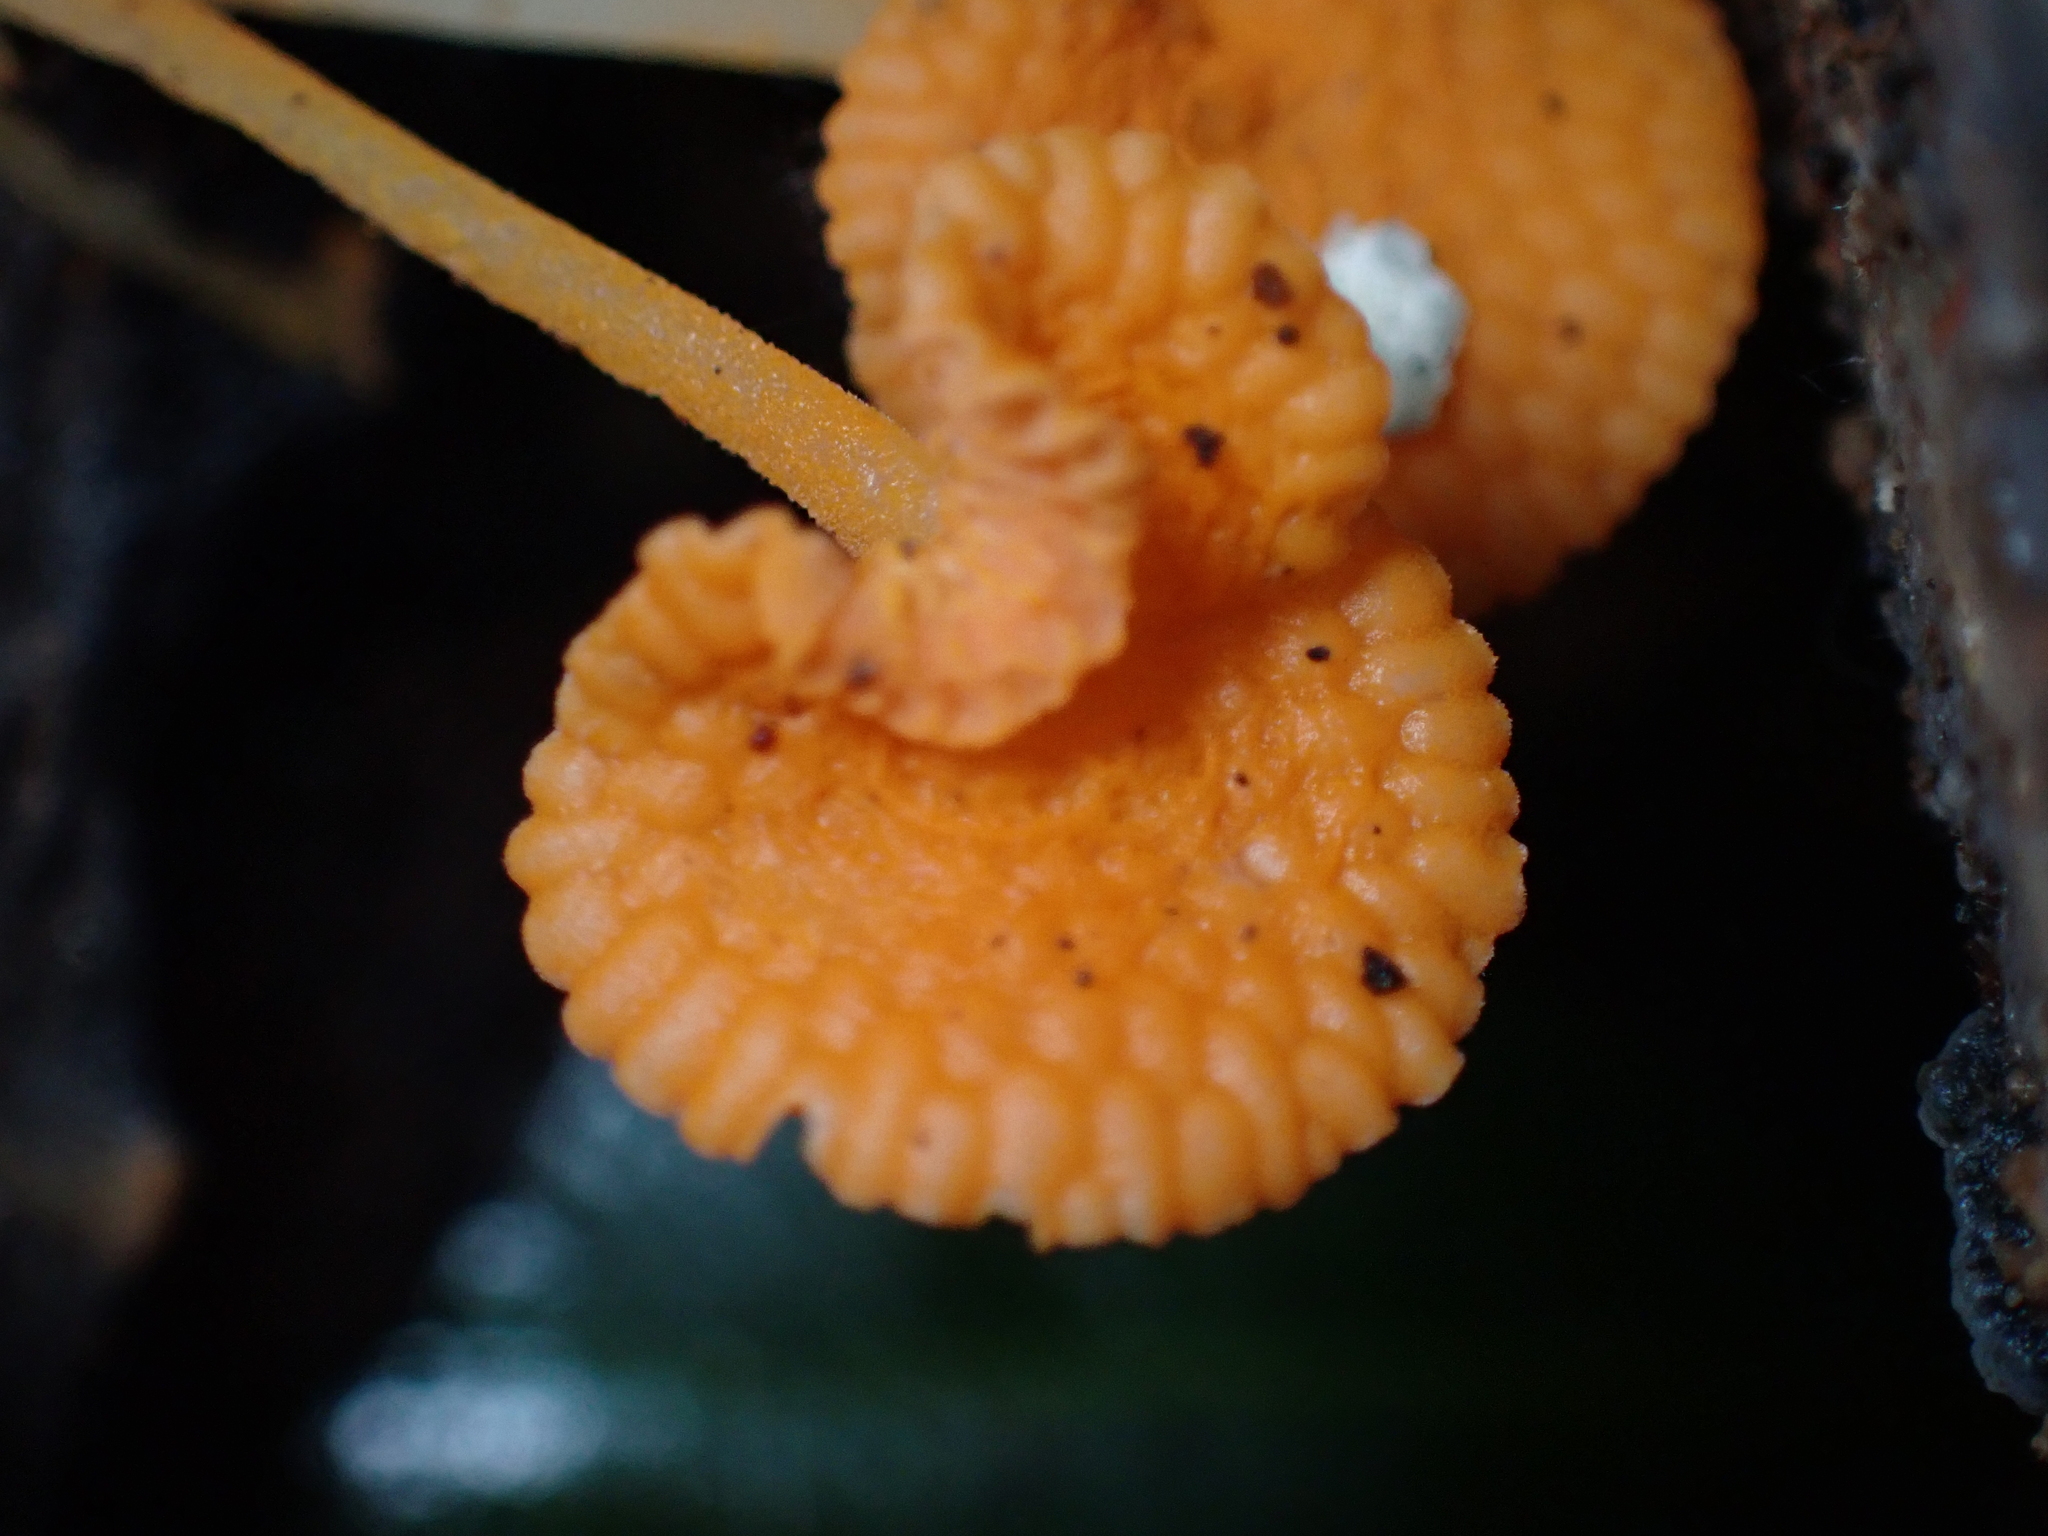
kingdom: Fungi
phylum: Basidiomycota
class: Agaricomycetes
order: Agaricales
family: Mycenaceae
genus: Favolaschia
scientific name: Favolaschia claudopus
